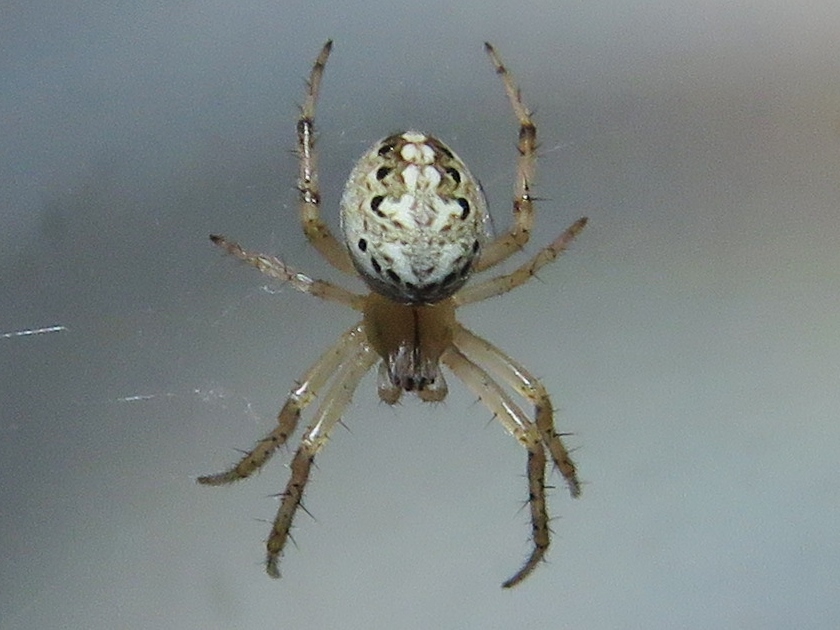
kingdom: Animalia
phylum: Arthropoda
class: Arachnida
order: Araneae
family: Araneidae
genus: Neoscona
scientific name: Neoscona oaxacensis
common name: Orb weavers
